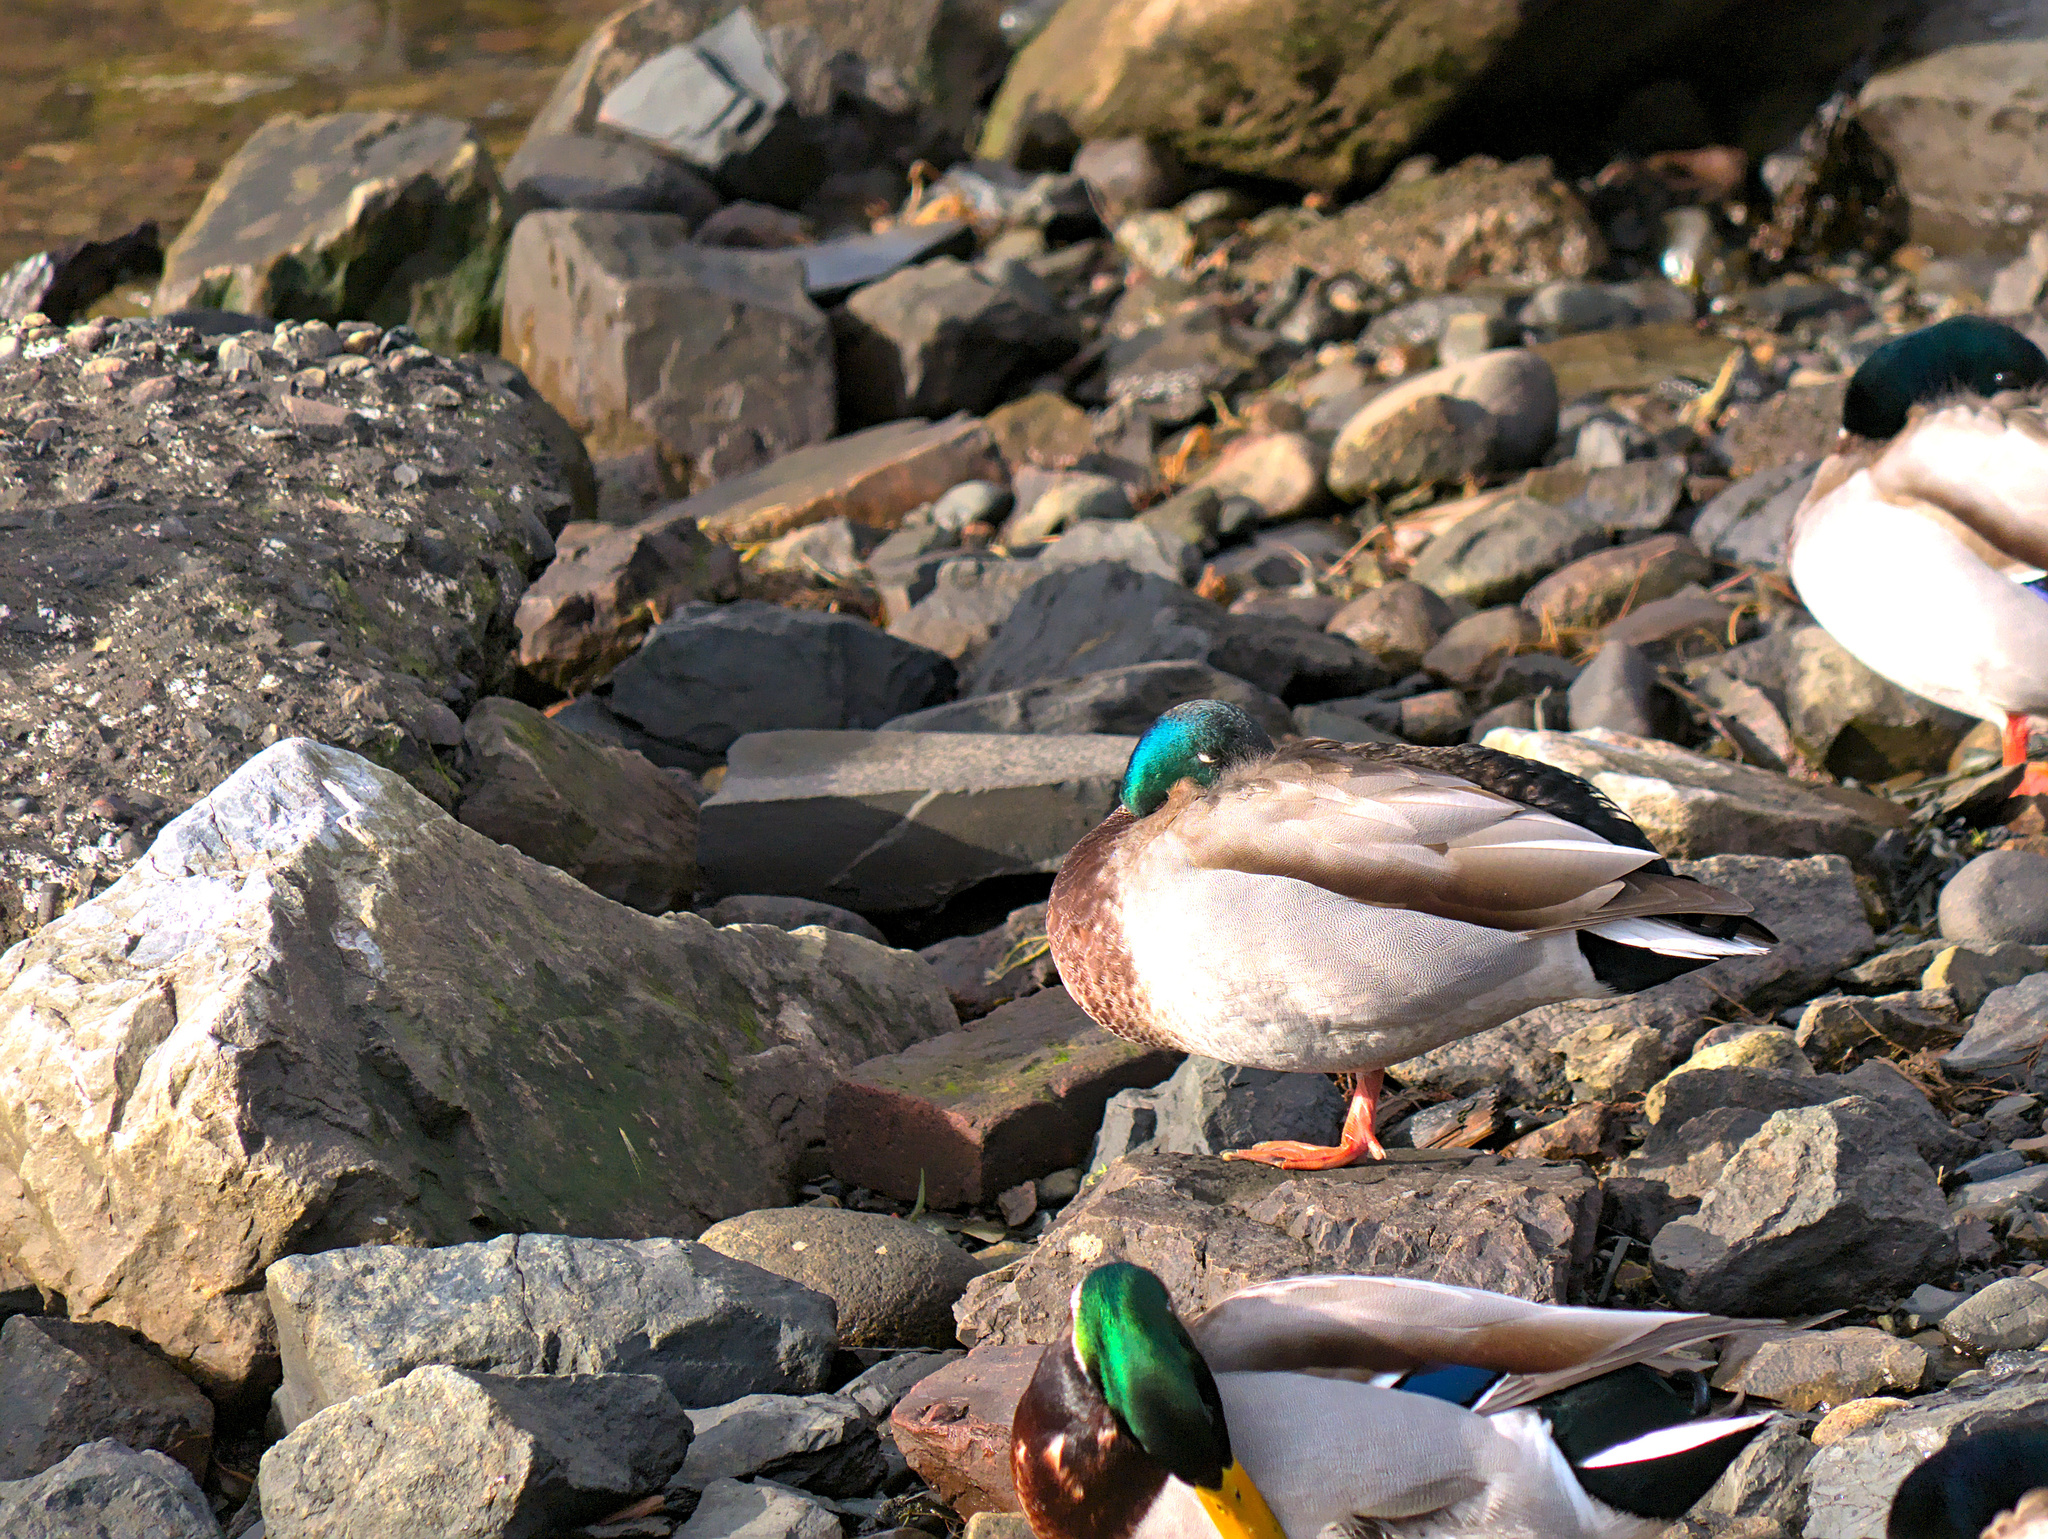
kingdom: Animalia
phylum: Chordata
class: Aves
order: Anseriformes
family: Anatidae
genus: Anas
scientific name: Anas platyrhynchos
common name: Mallard
